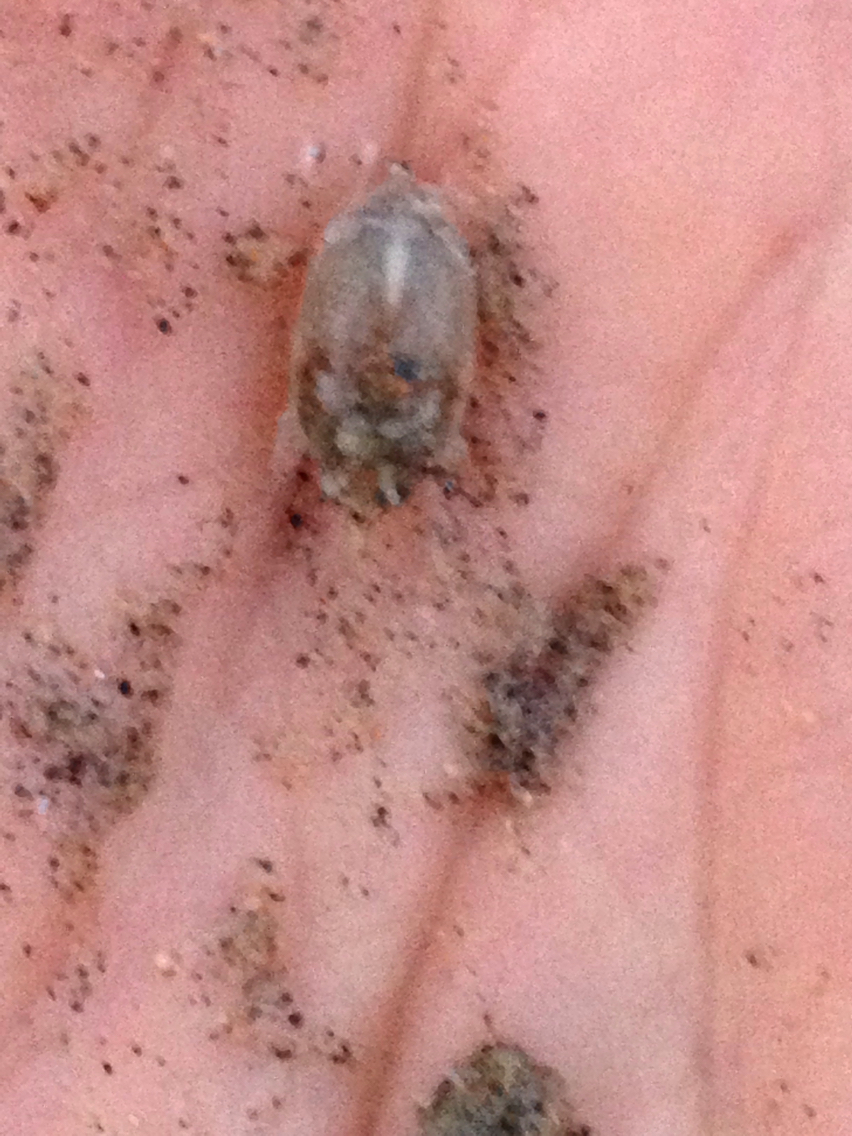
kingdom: Animalia
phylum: Arthropoda
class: Malacostraca
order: Decapoda
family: Hippidae
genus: Emerita
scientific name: Emerita analoga
